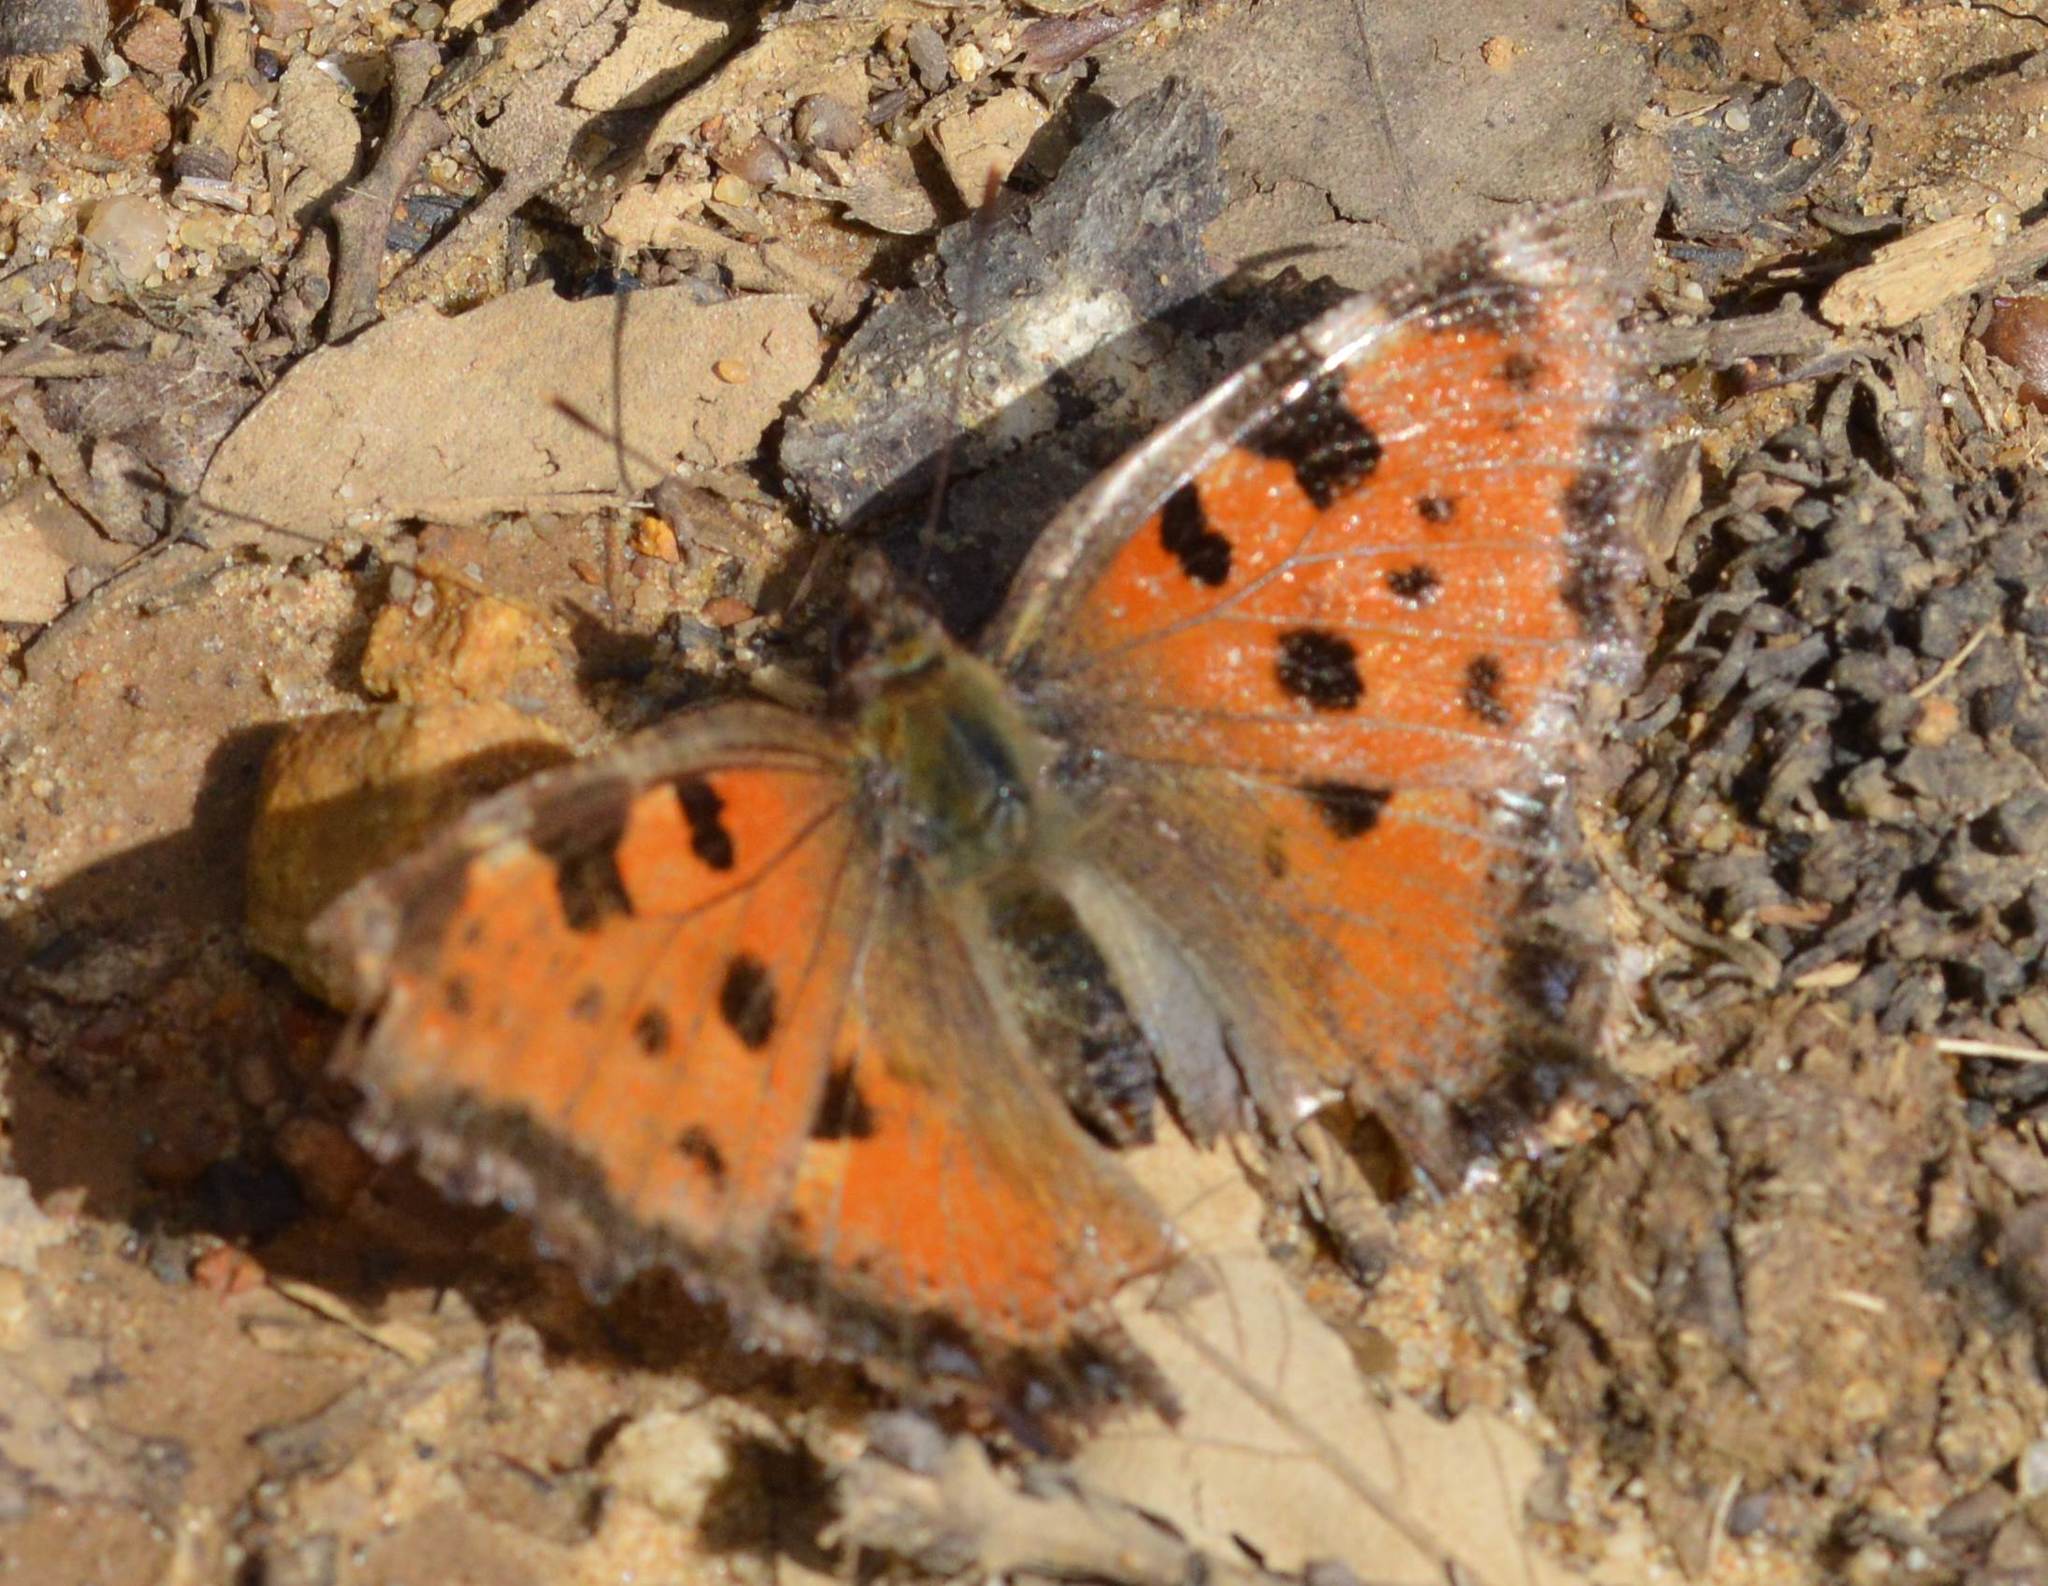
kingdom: Animalia
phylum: Arthropoda
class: Insecta
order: Lepidoptera
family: Nymphalidae
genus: Nymphalis
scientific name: Nymphalis polychloros
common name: Large tortoiseshell
